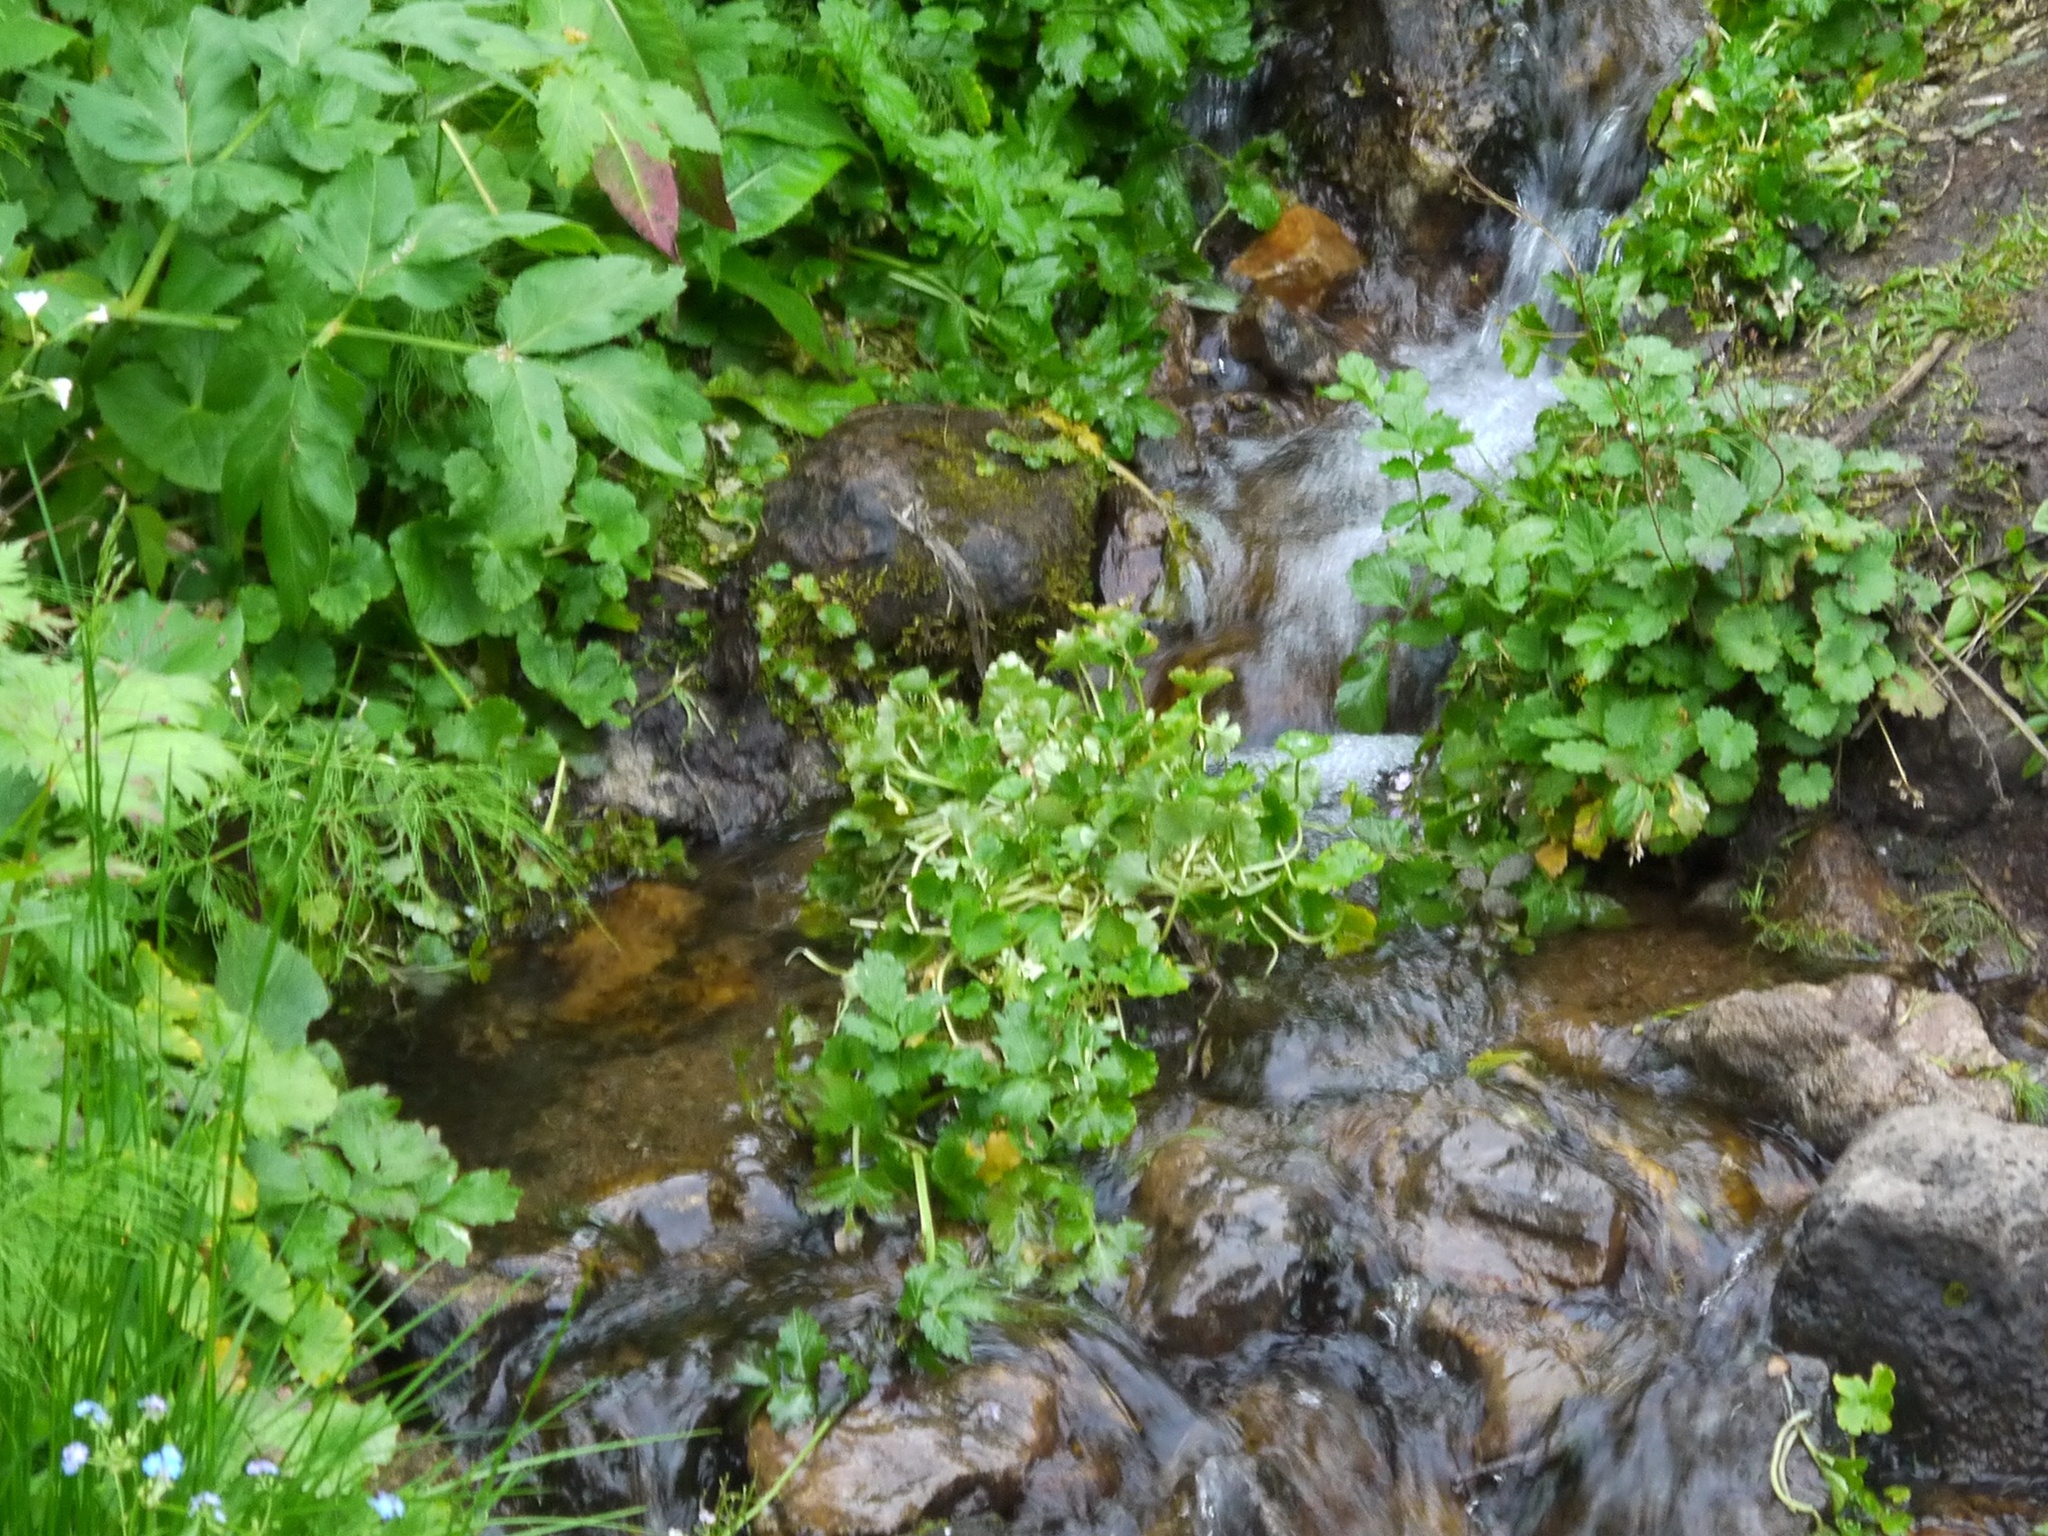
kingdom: Plantae
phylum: Tracheophyta
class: Magnoliopsida
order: Saxifragales
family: Saxifragaceae
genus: Micranthes
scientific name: Micranthes nelsoniana
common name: Nelson's saxifrage
